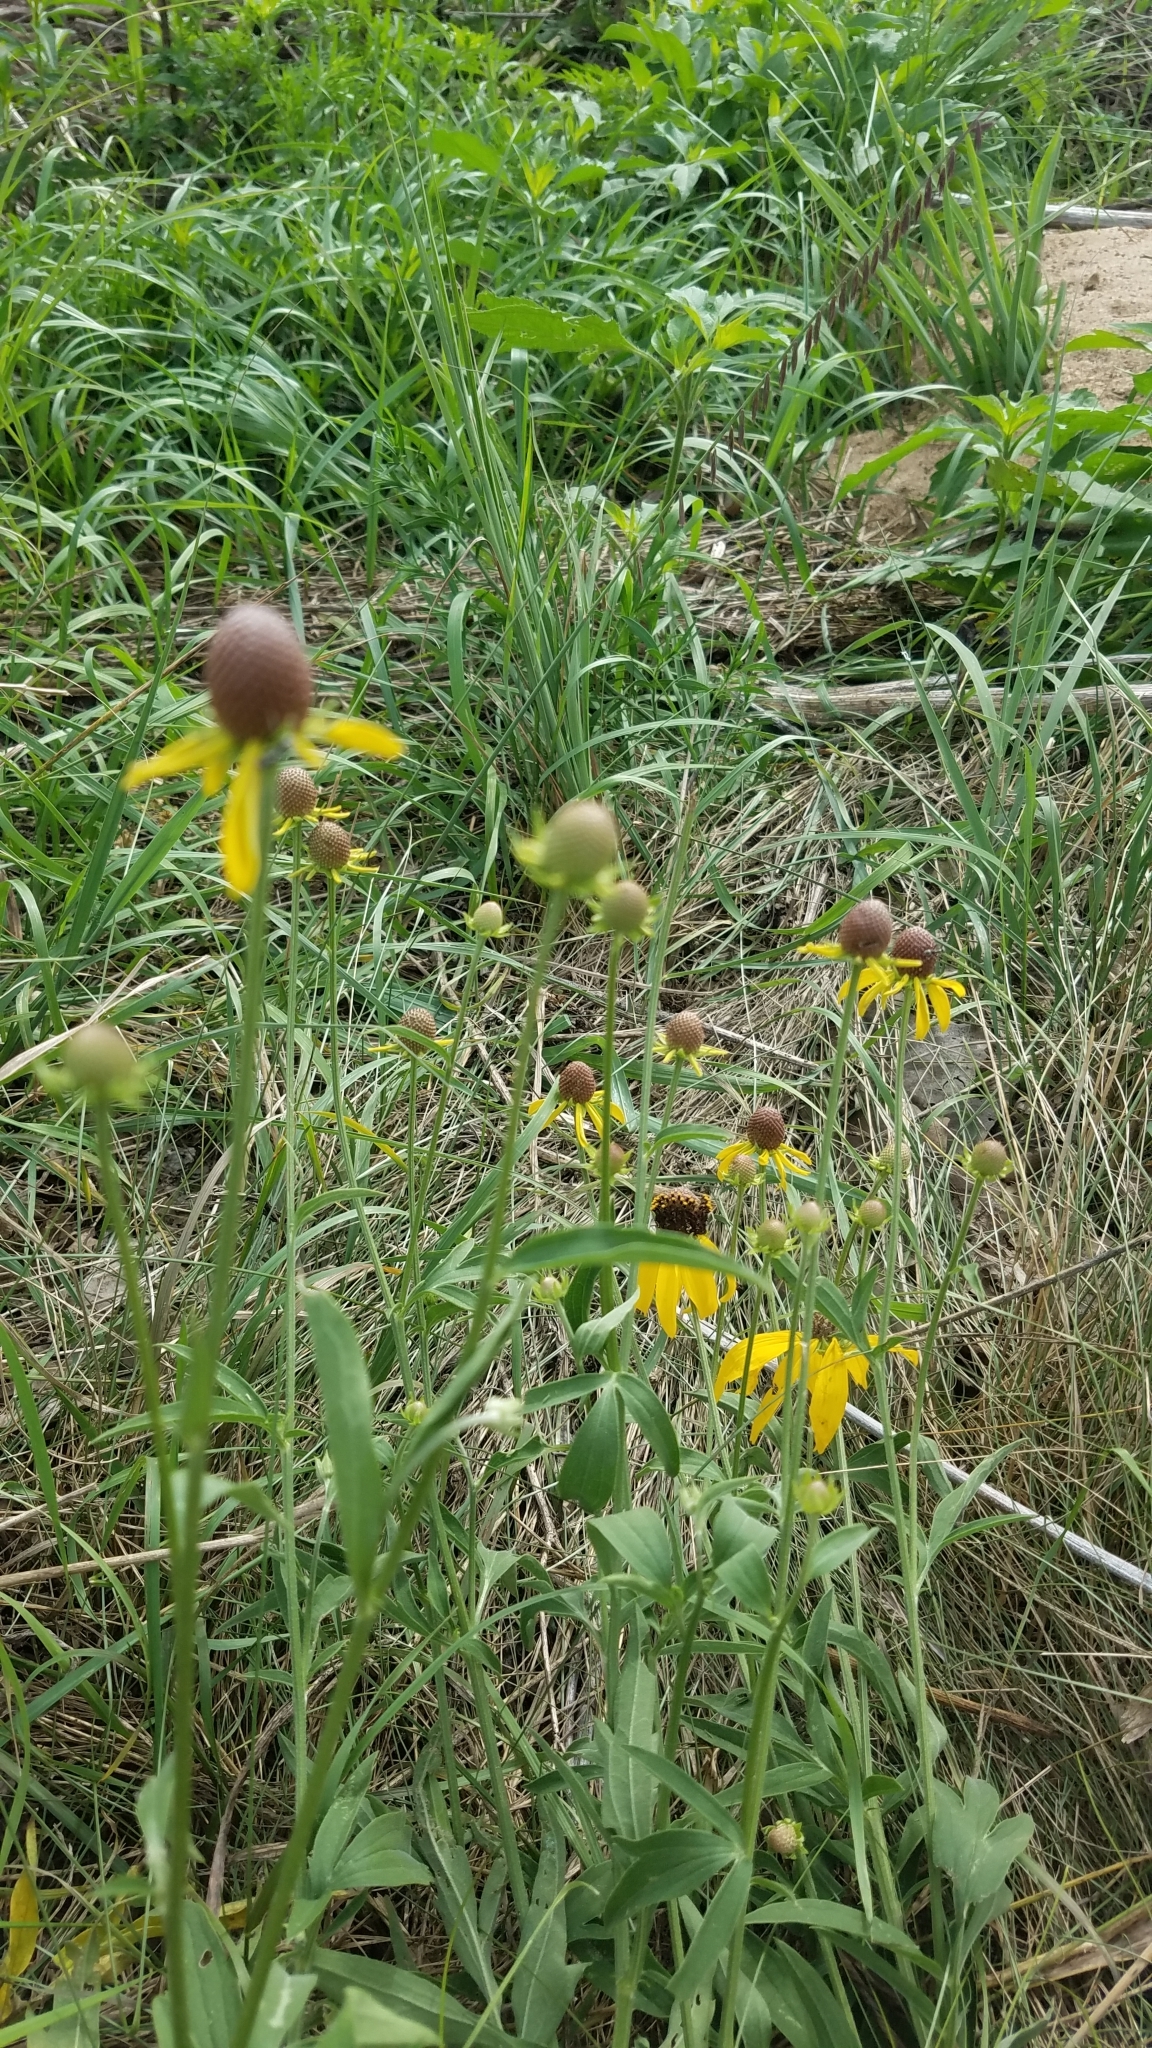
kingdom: Plantae
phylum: Tracheophyta
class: Magnoliopsida
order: Asterales
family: Asteraceae
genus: Ratibida
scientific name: Ratibida pinnata
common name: Drooping prairie-coneflower
